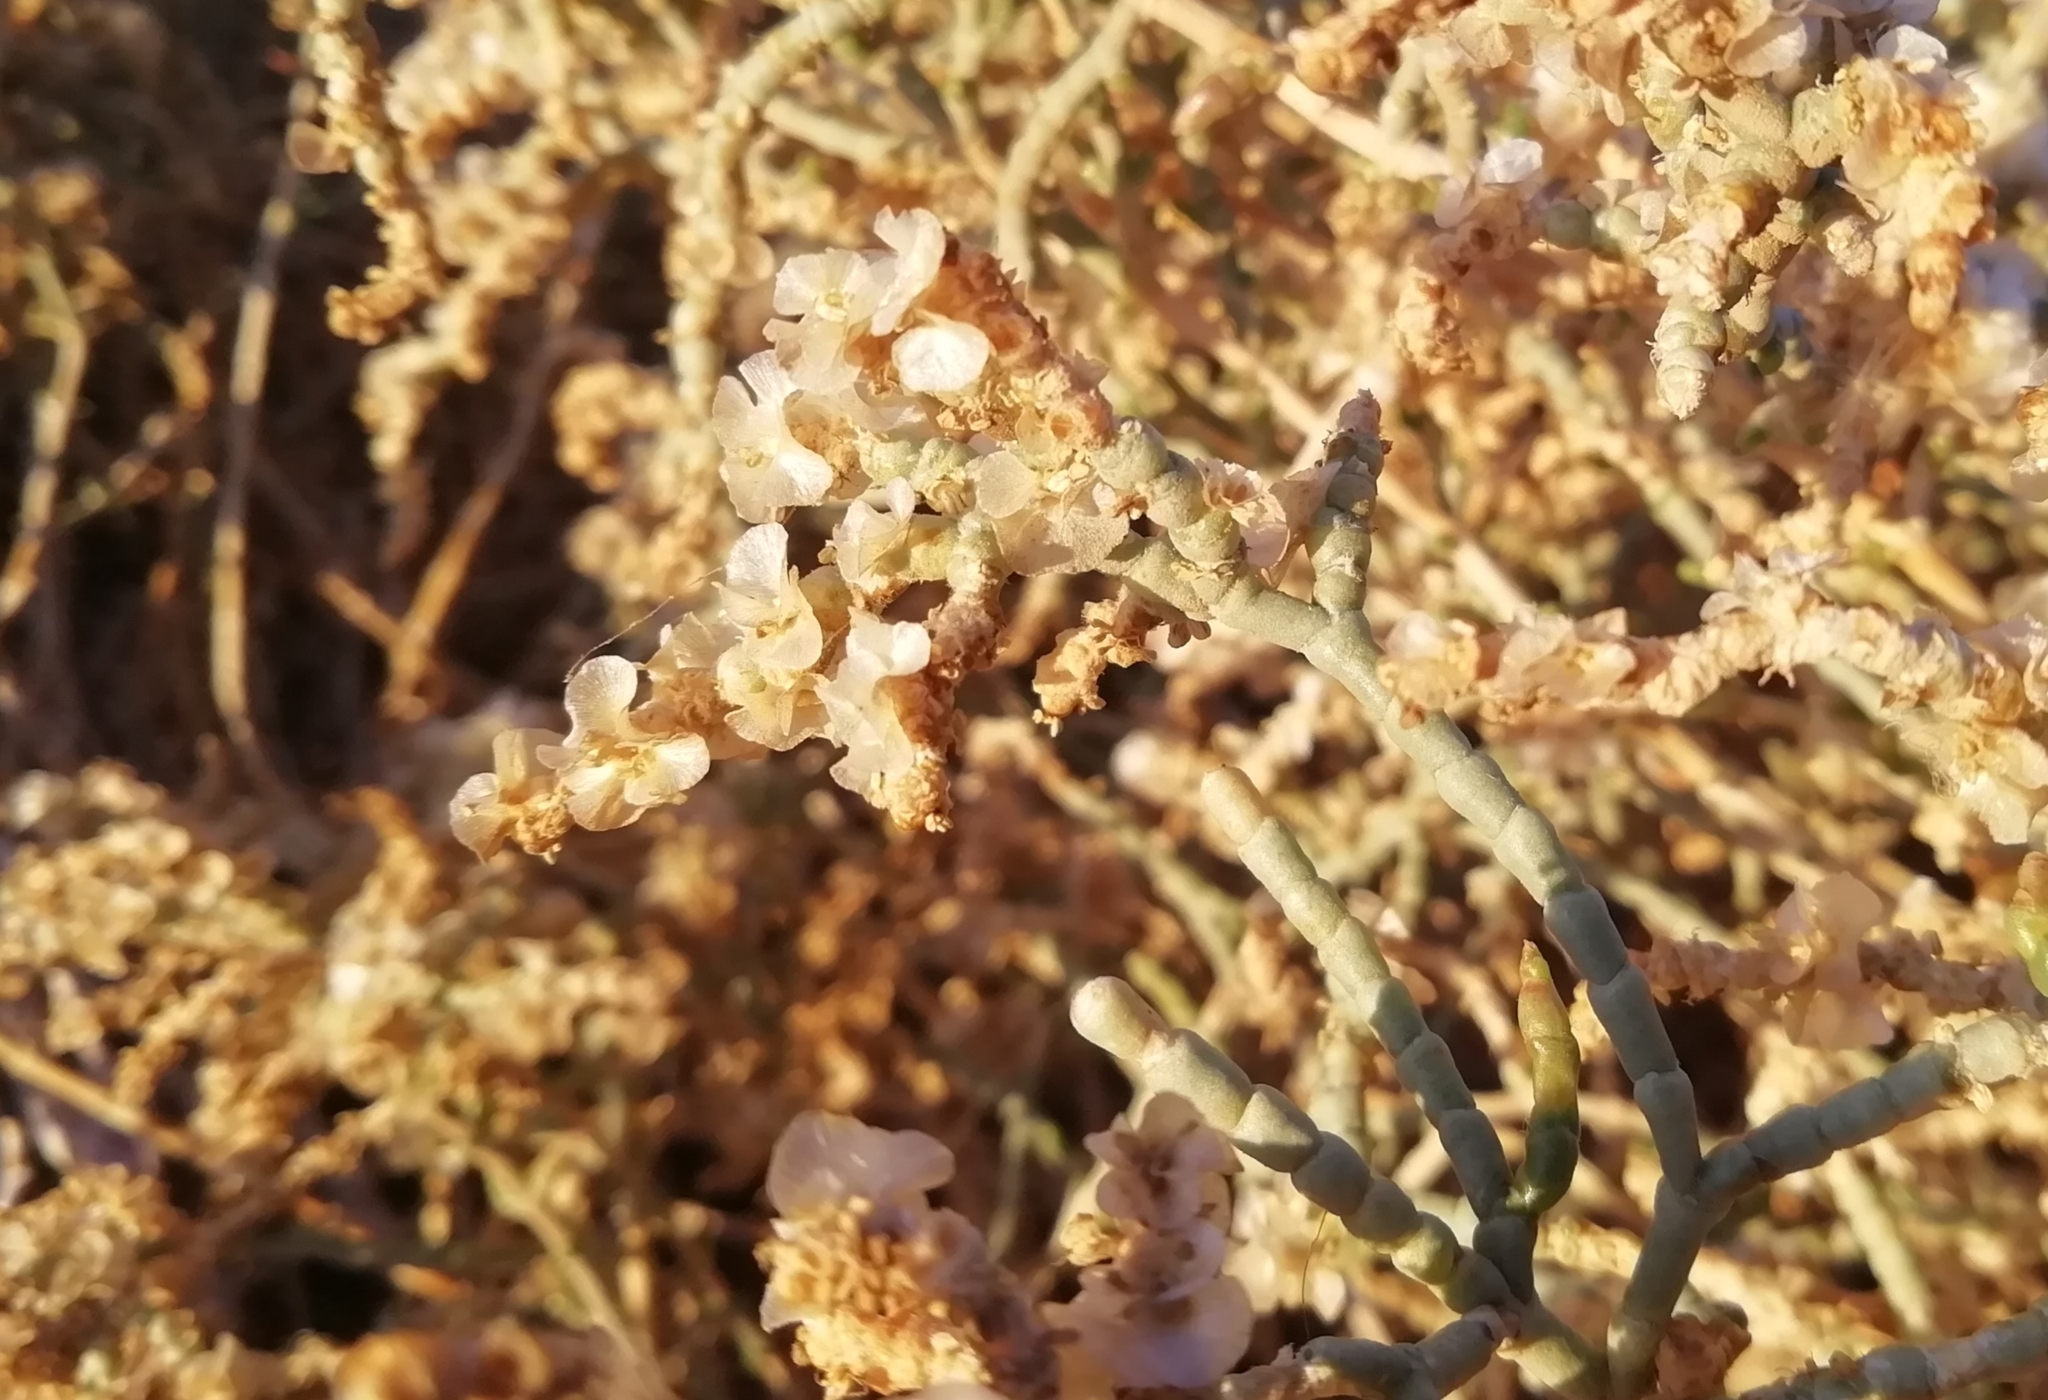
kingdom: Plantae
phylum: Tracheophyta
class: Magnoliopsida
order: Caryophyllales
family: Amaranthaceae
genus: Anabasis
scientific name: Anabasis articulata
